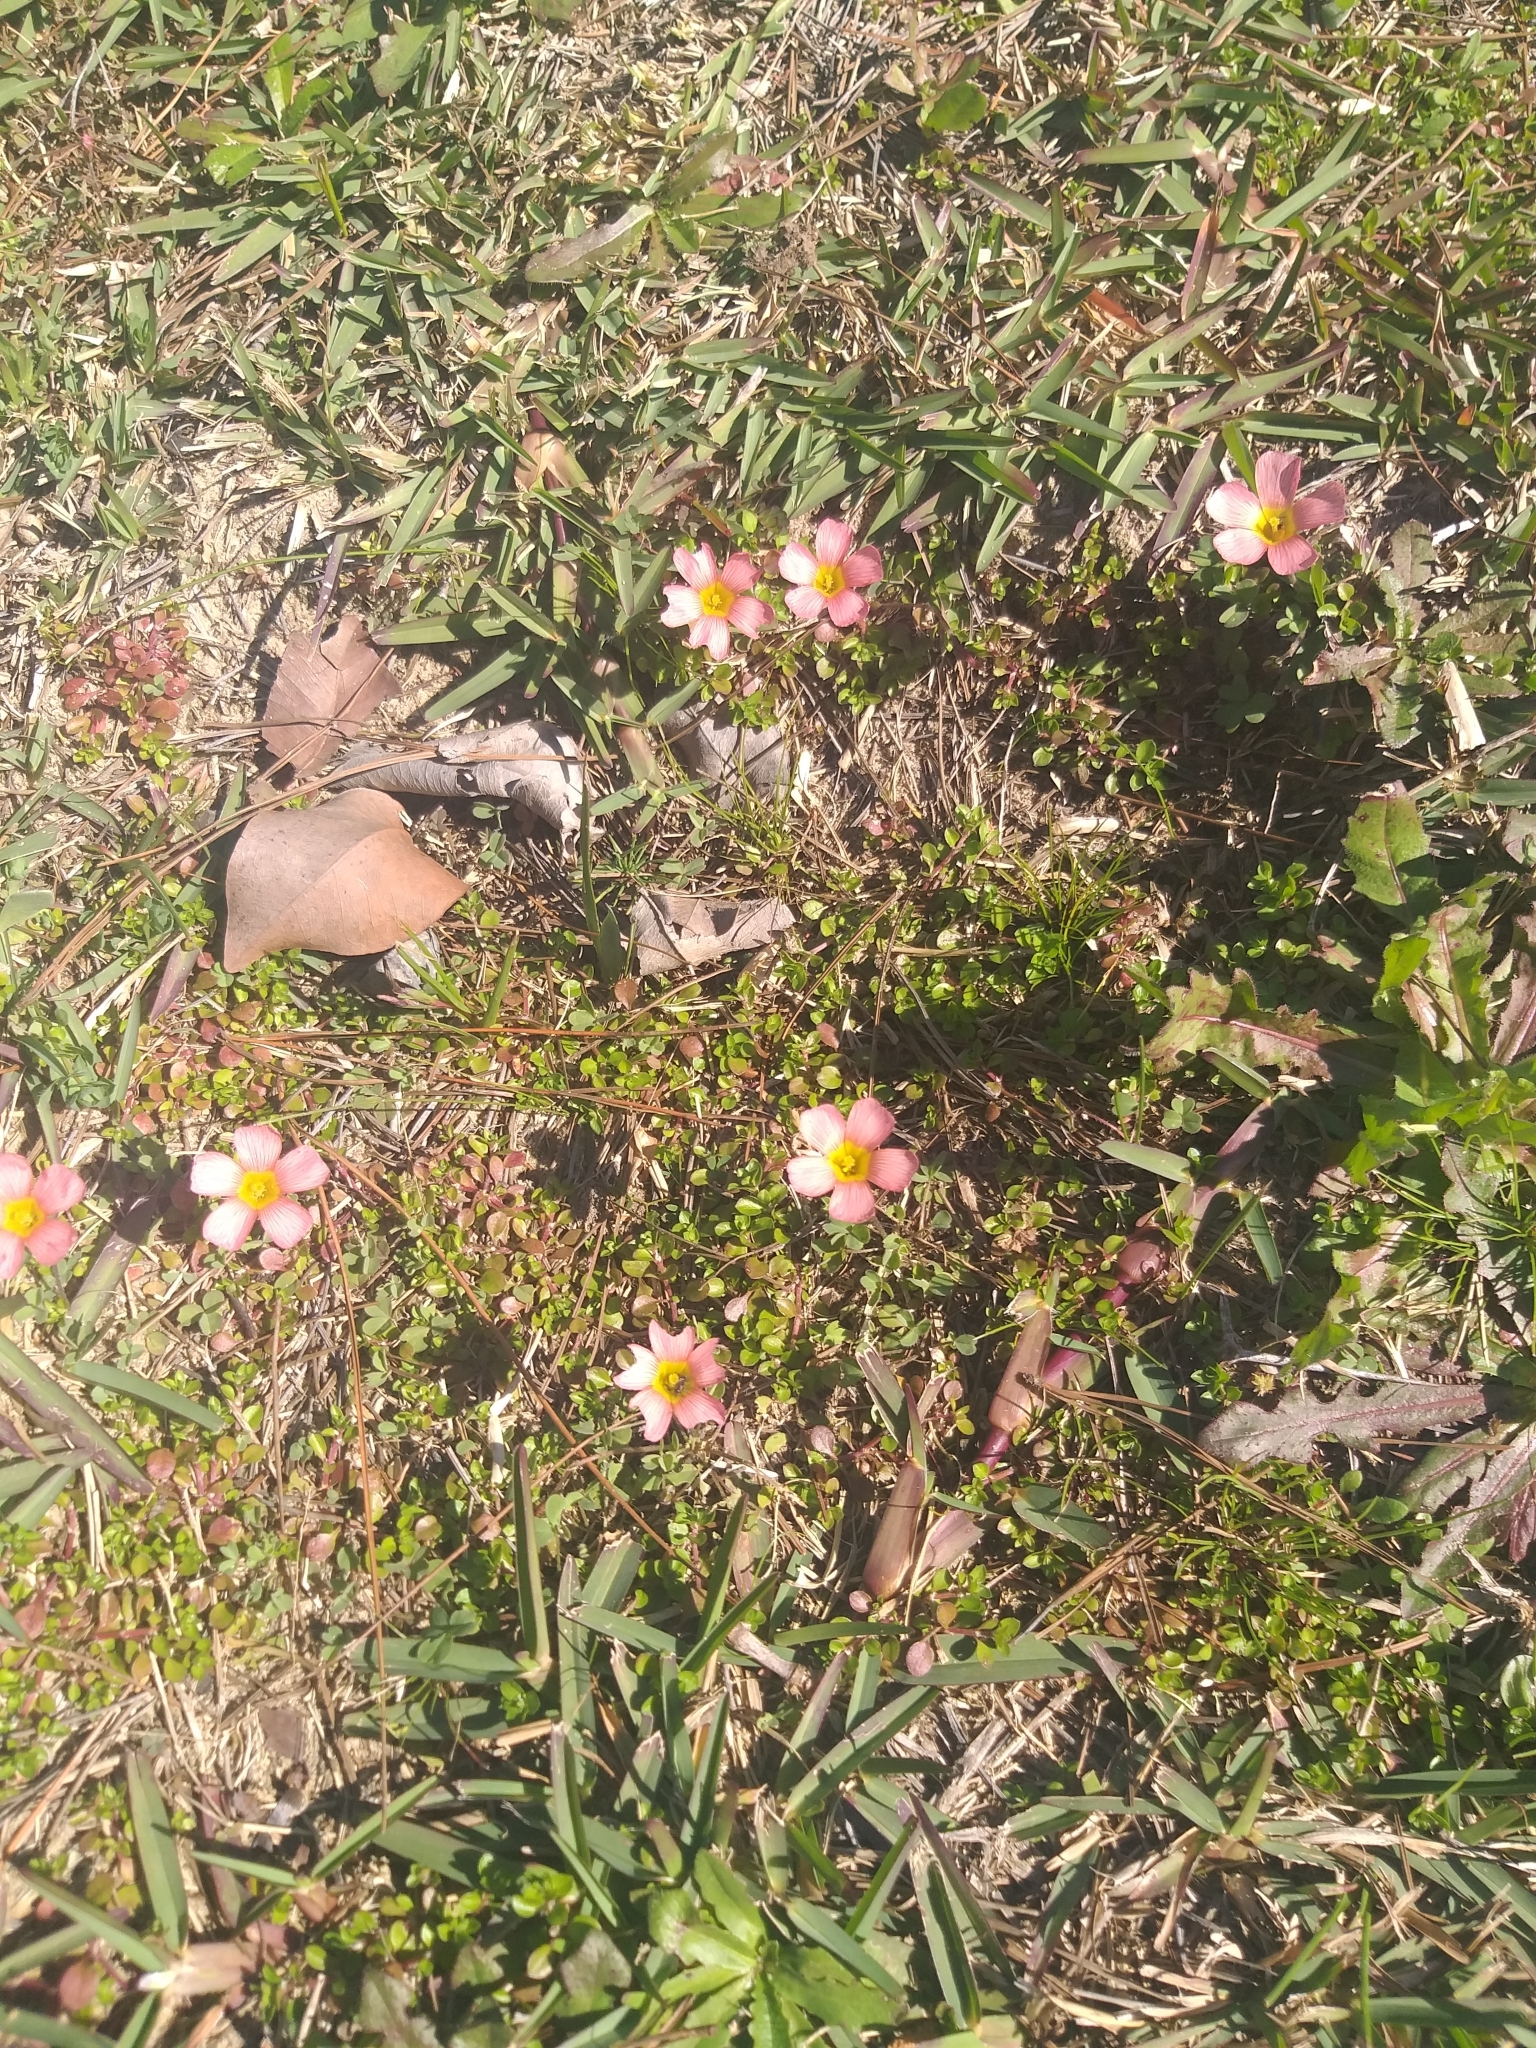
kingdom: Plantae
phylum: Tracheophyta
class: Magnoliopsida
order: Oxalidales
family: Oxalidaceae
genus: Oxalis
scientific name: Oxalis obtusa
